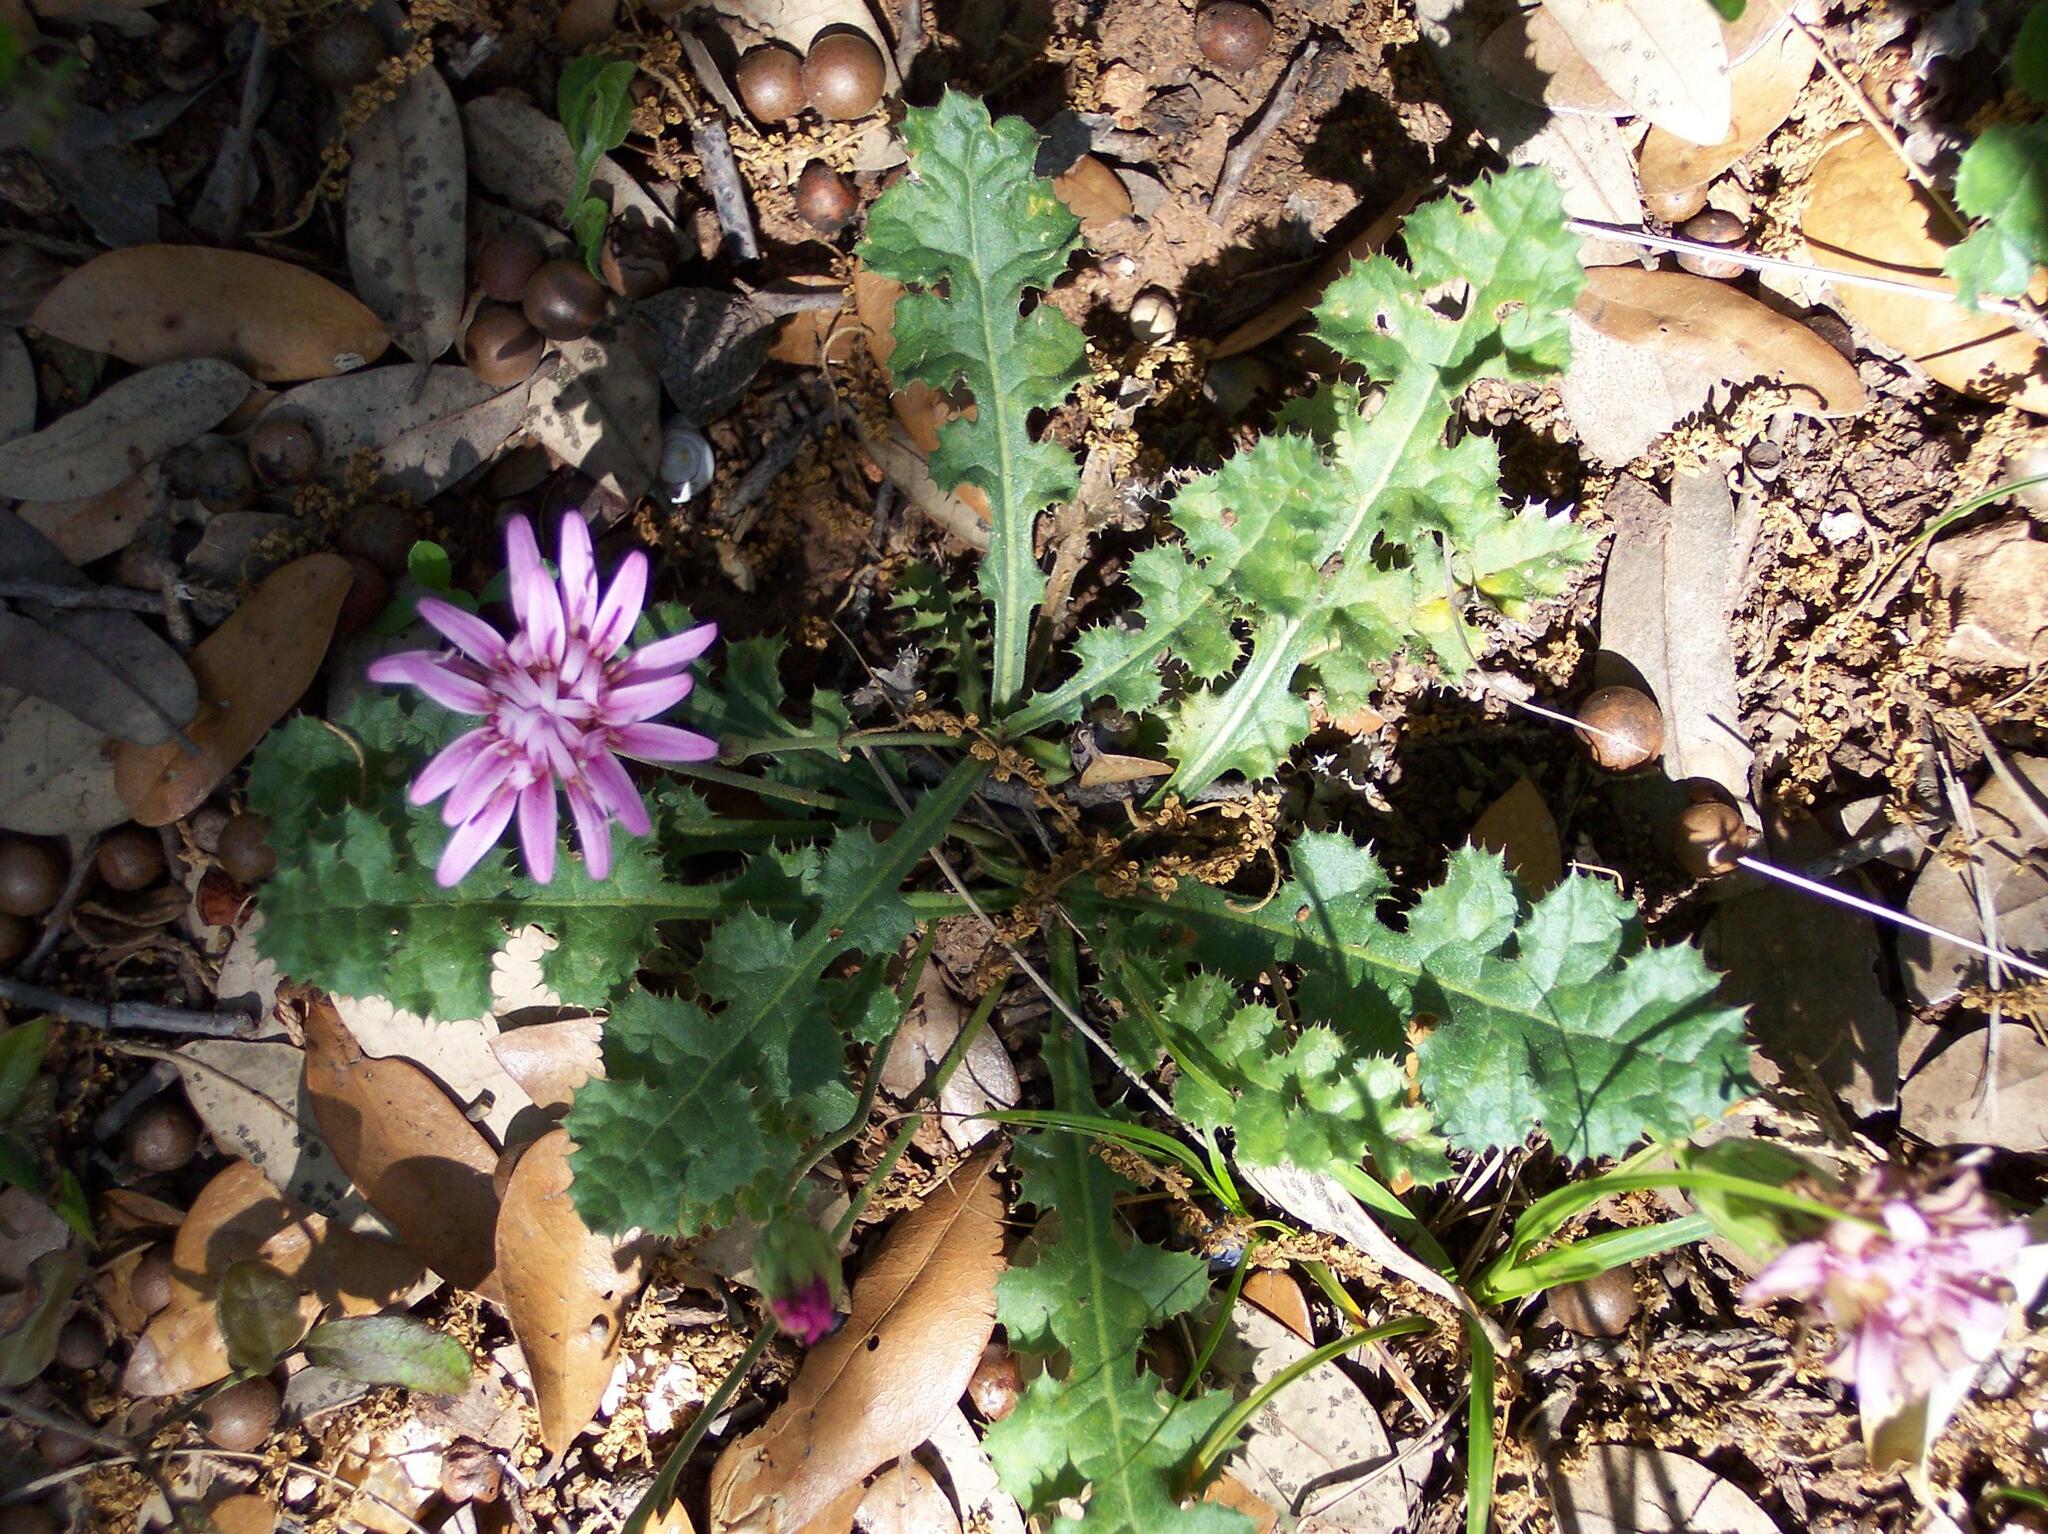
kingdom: Plantae
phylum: Tracheophyta
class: Magnoliopsida
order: Asterales
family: Asteraceae
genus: Acourtia
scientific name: Acourtia runcinata
